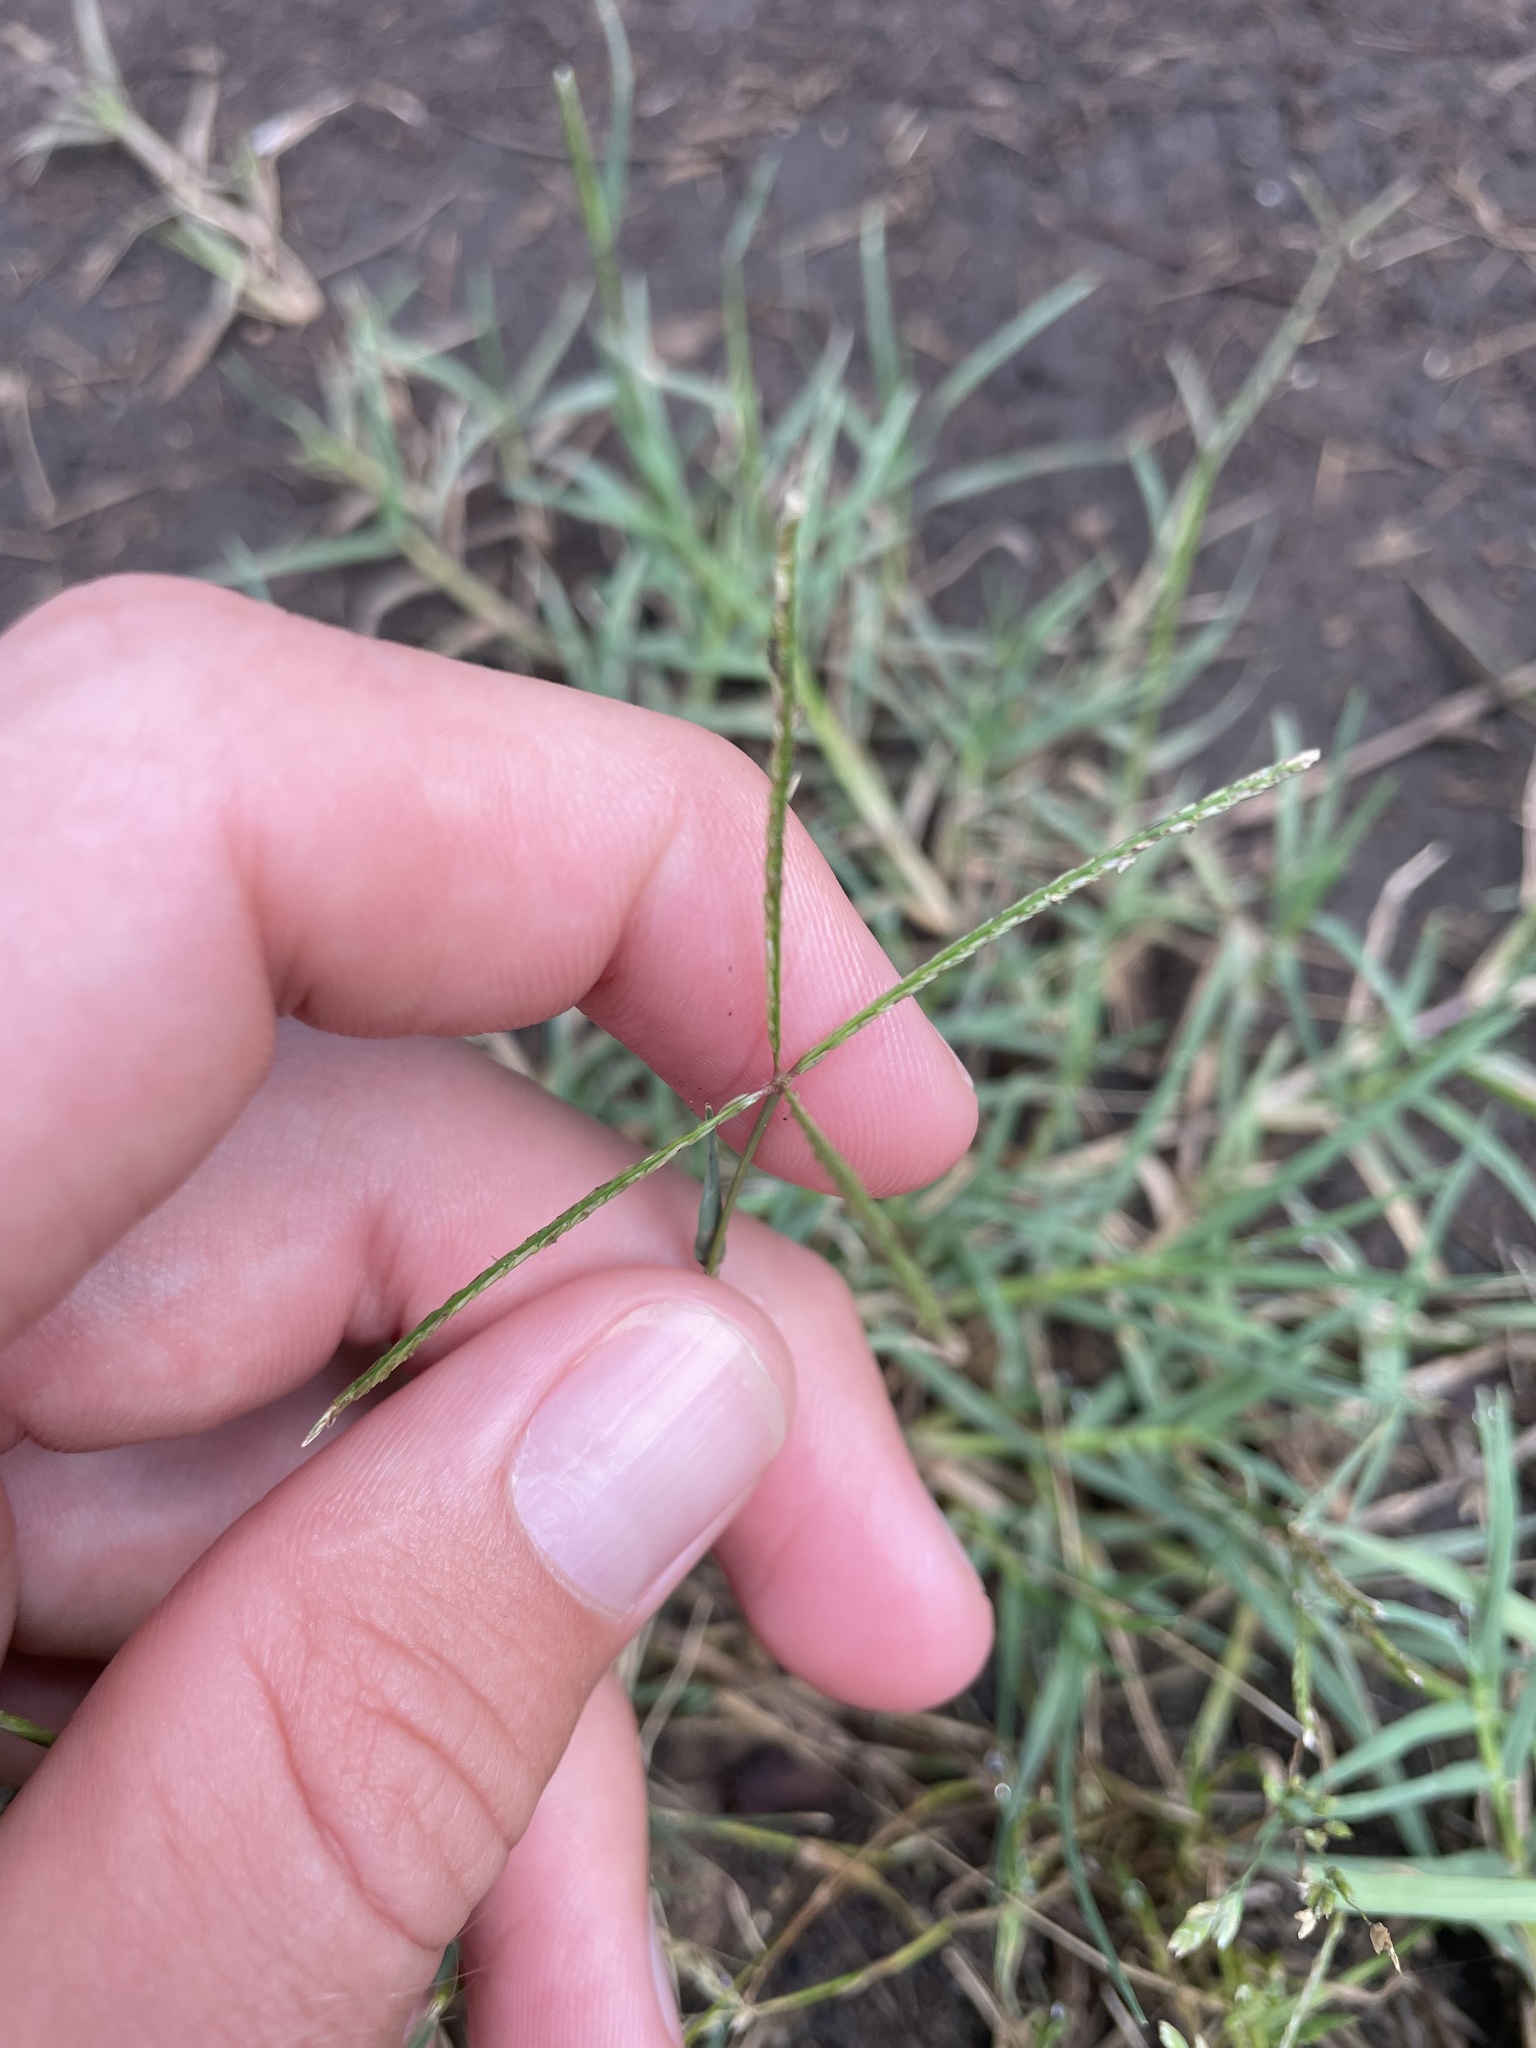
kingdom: Plantae
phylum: Tracheophyta
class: Liliopsida
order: Poales
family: Poaceae
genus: Cynodon
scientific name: Cynodon dactylon
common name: Bermuda grass
